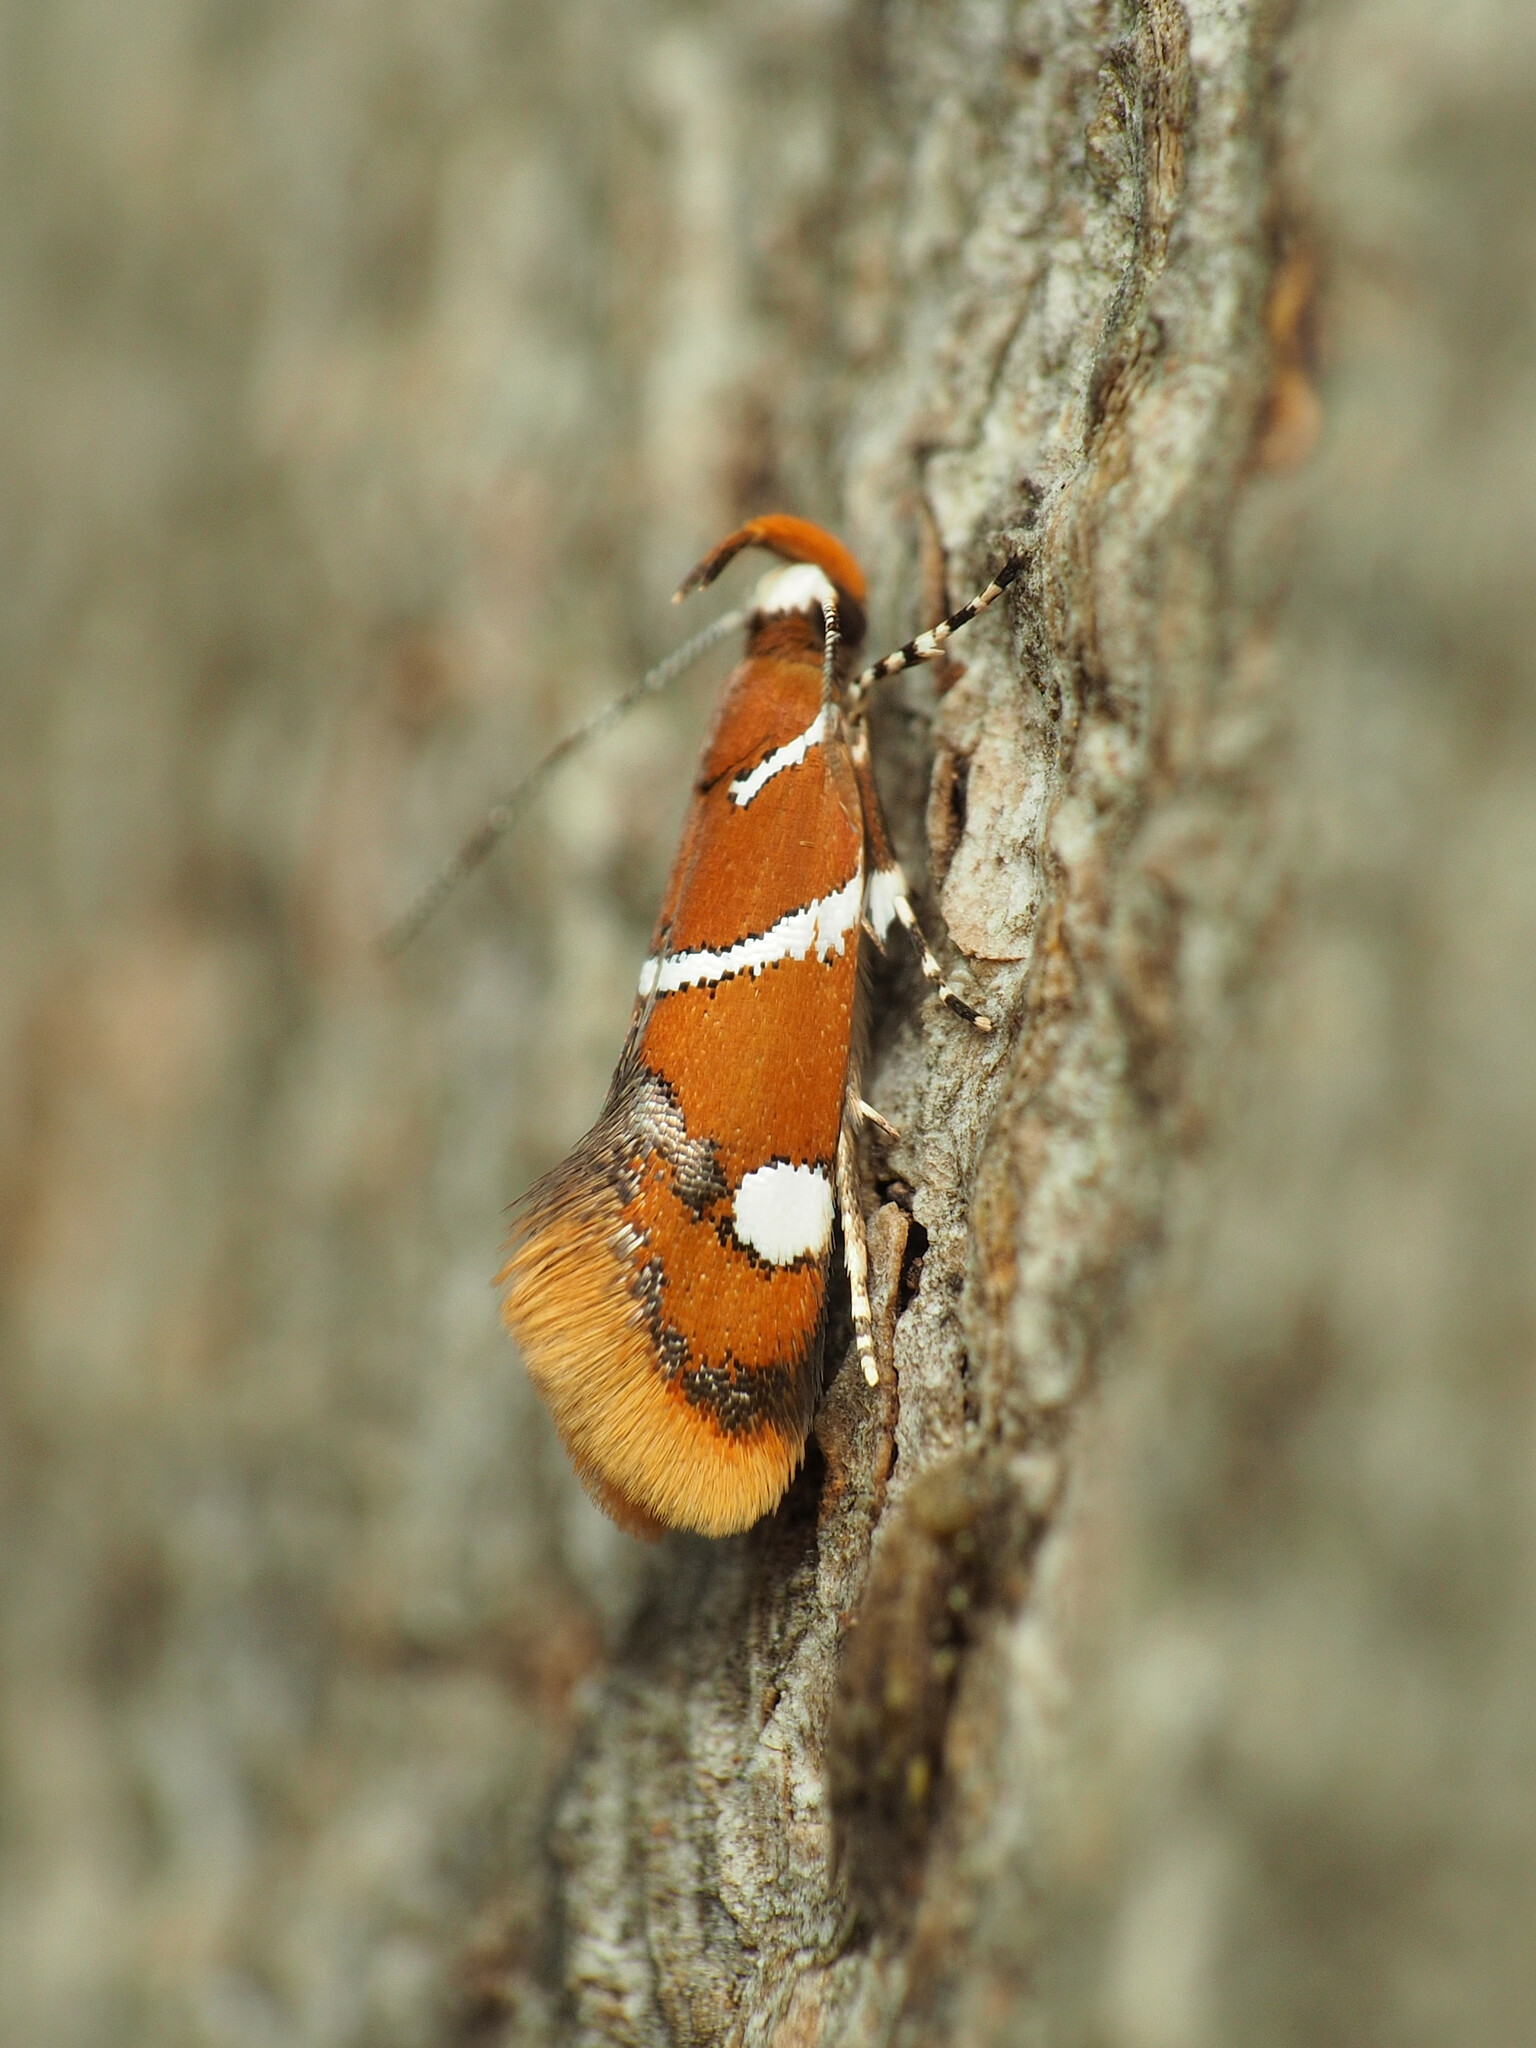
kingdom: Animalia
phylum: Arthropoda
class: Insecta
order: Lepidoptera
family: Oecophoridae
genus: Promalactis
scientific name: Promalactis suzukiella
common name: Moth
